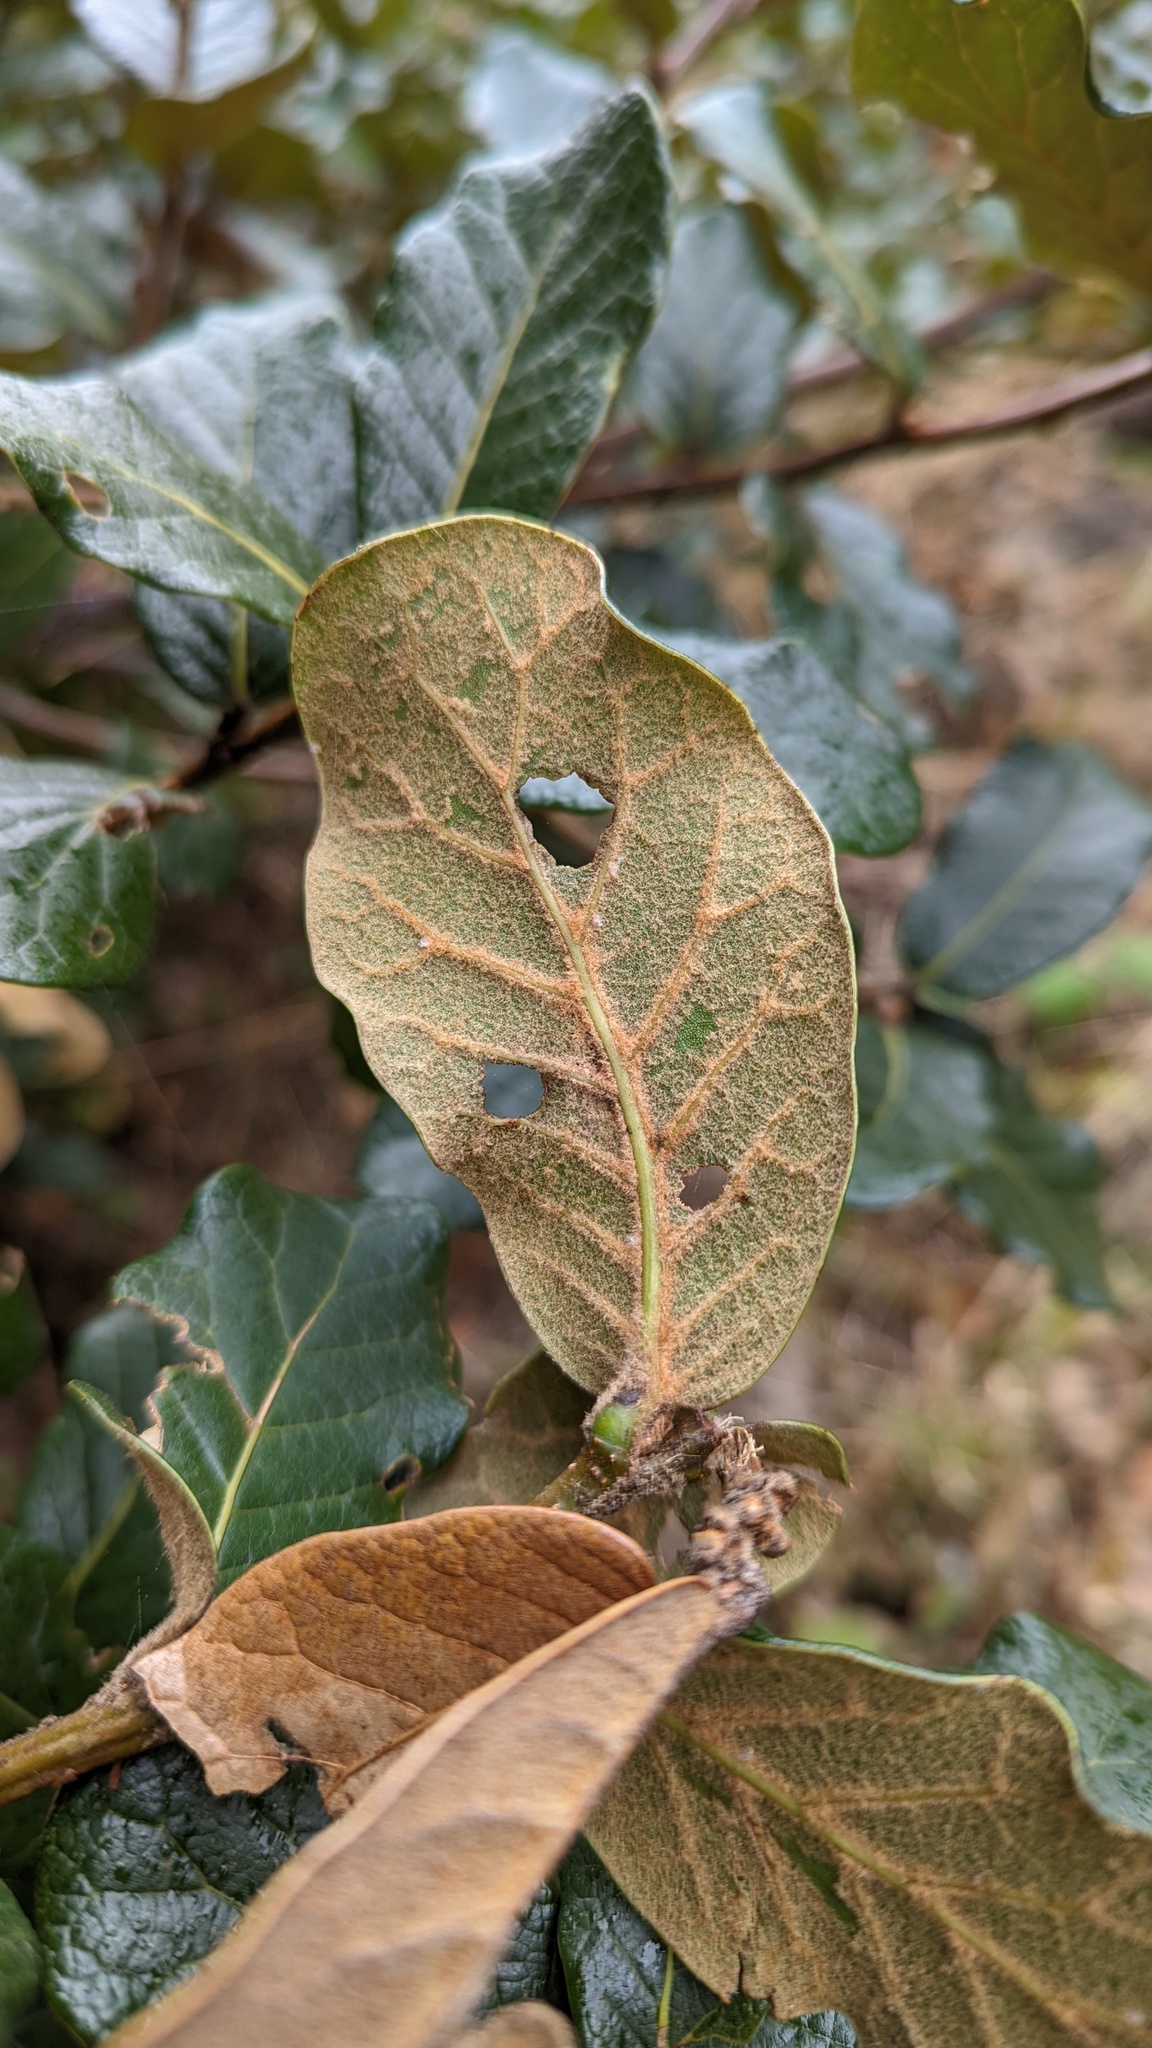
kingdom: Plantae
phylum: Tracheophyta
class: Magnoliopsida
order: Fagales
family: Fagaceae
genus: Quercus
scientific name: Quercus costaricensis
